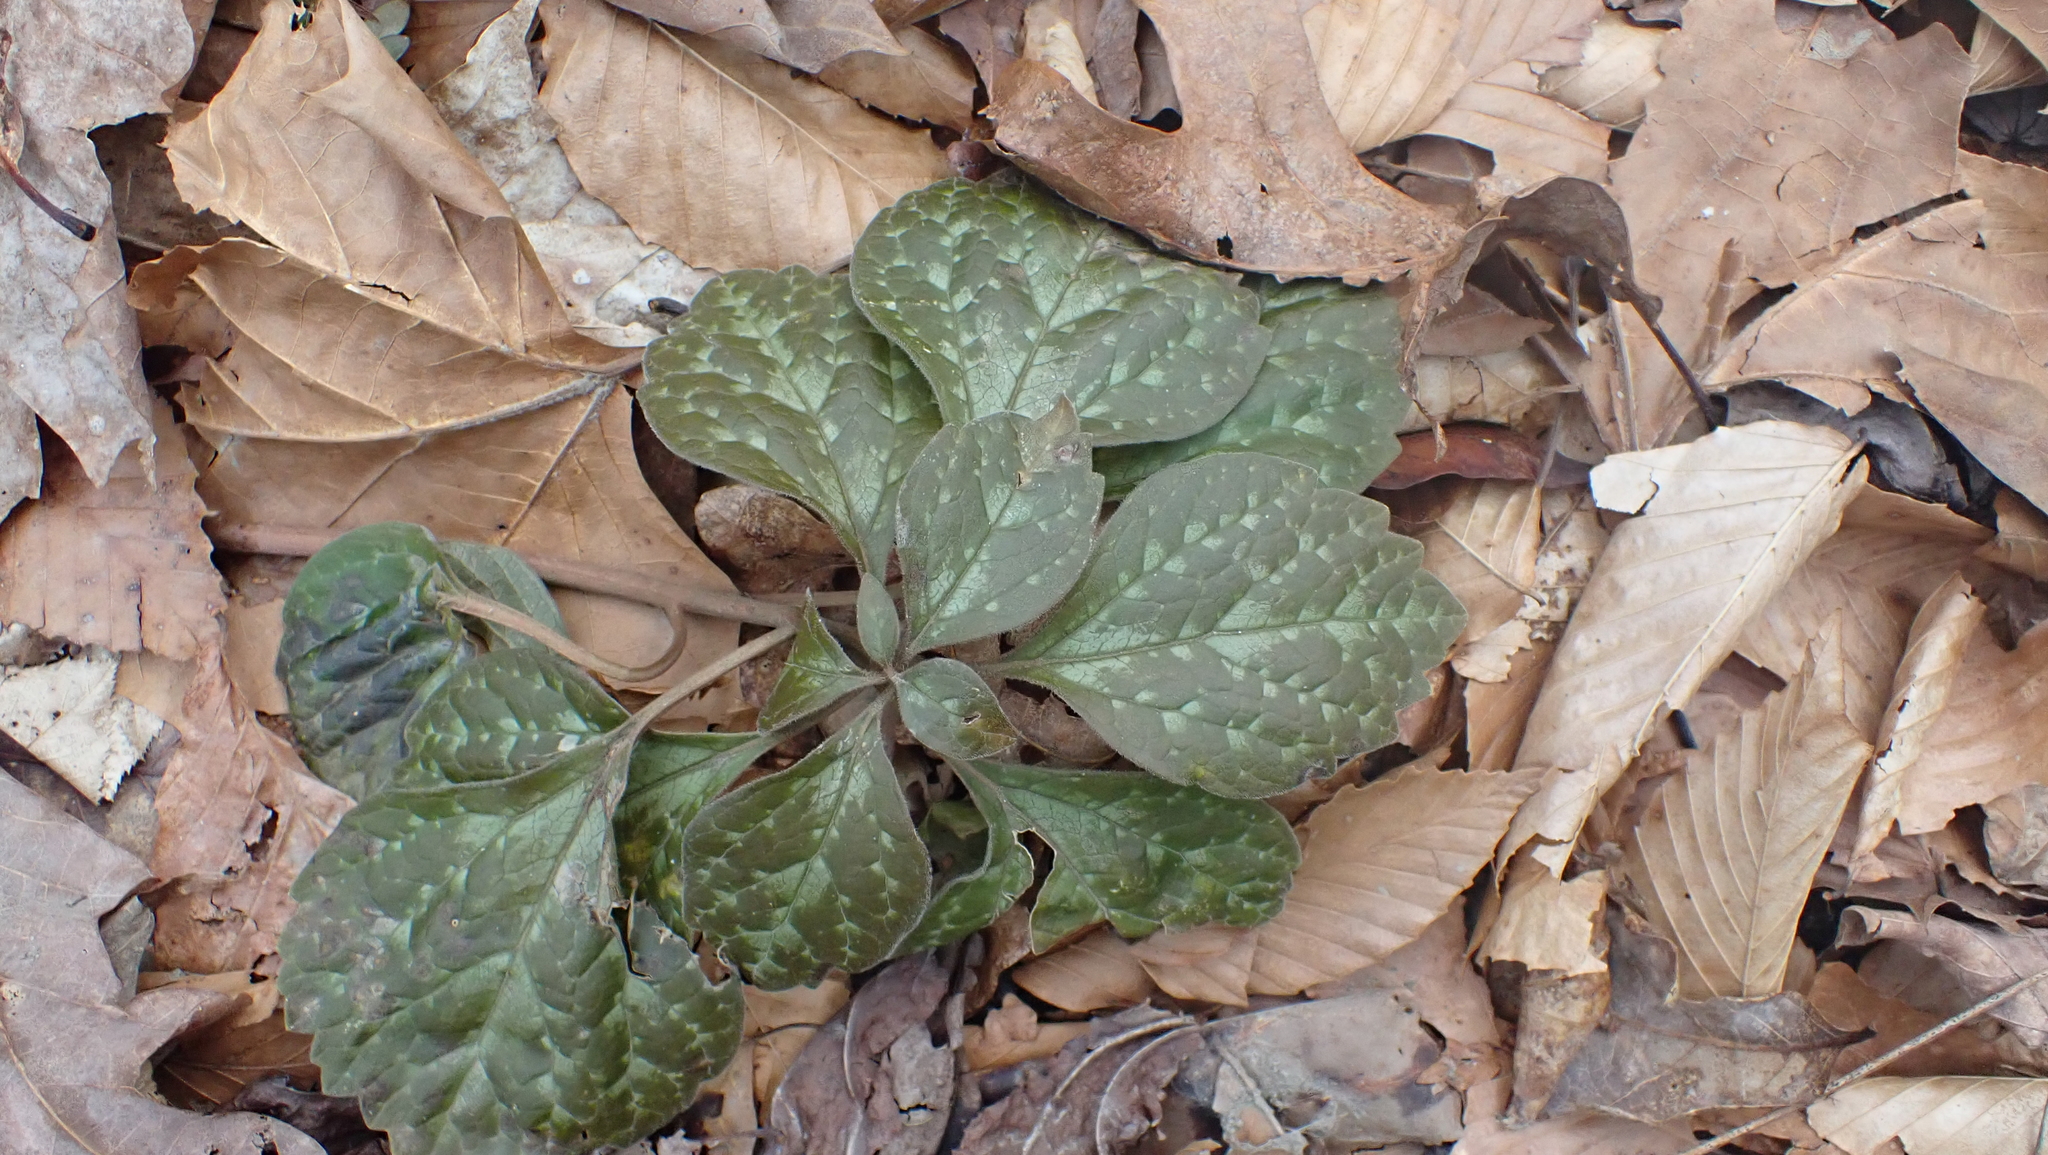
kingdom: Plantae
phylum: Tracheophyta
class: Magnoliopsida
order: Buxales
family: Buxaceae
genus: Pachysandra
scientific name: Pachysandra procumbens
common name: Mountain-spurge
